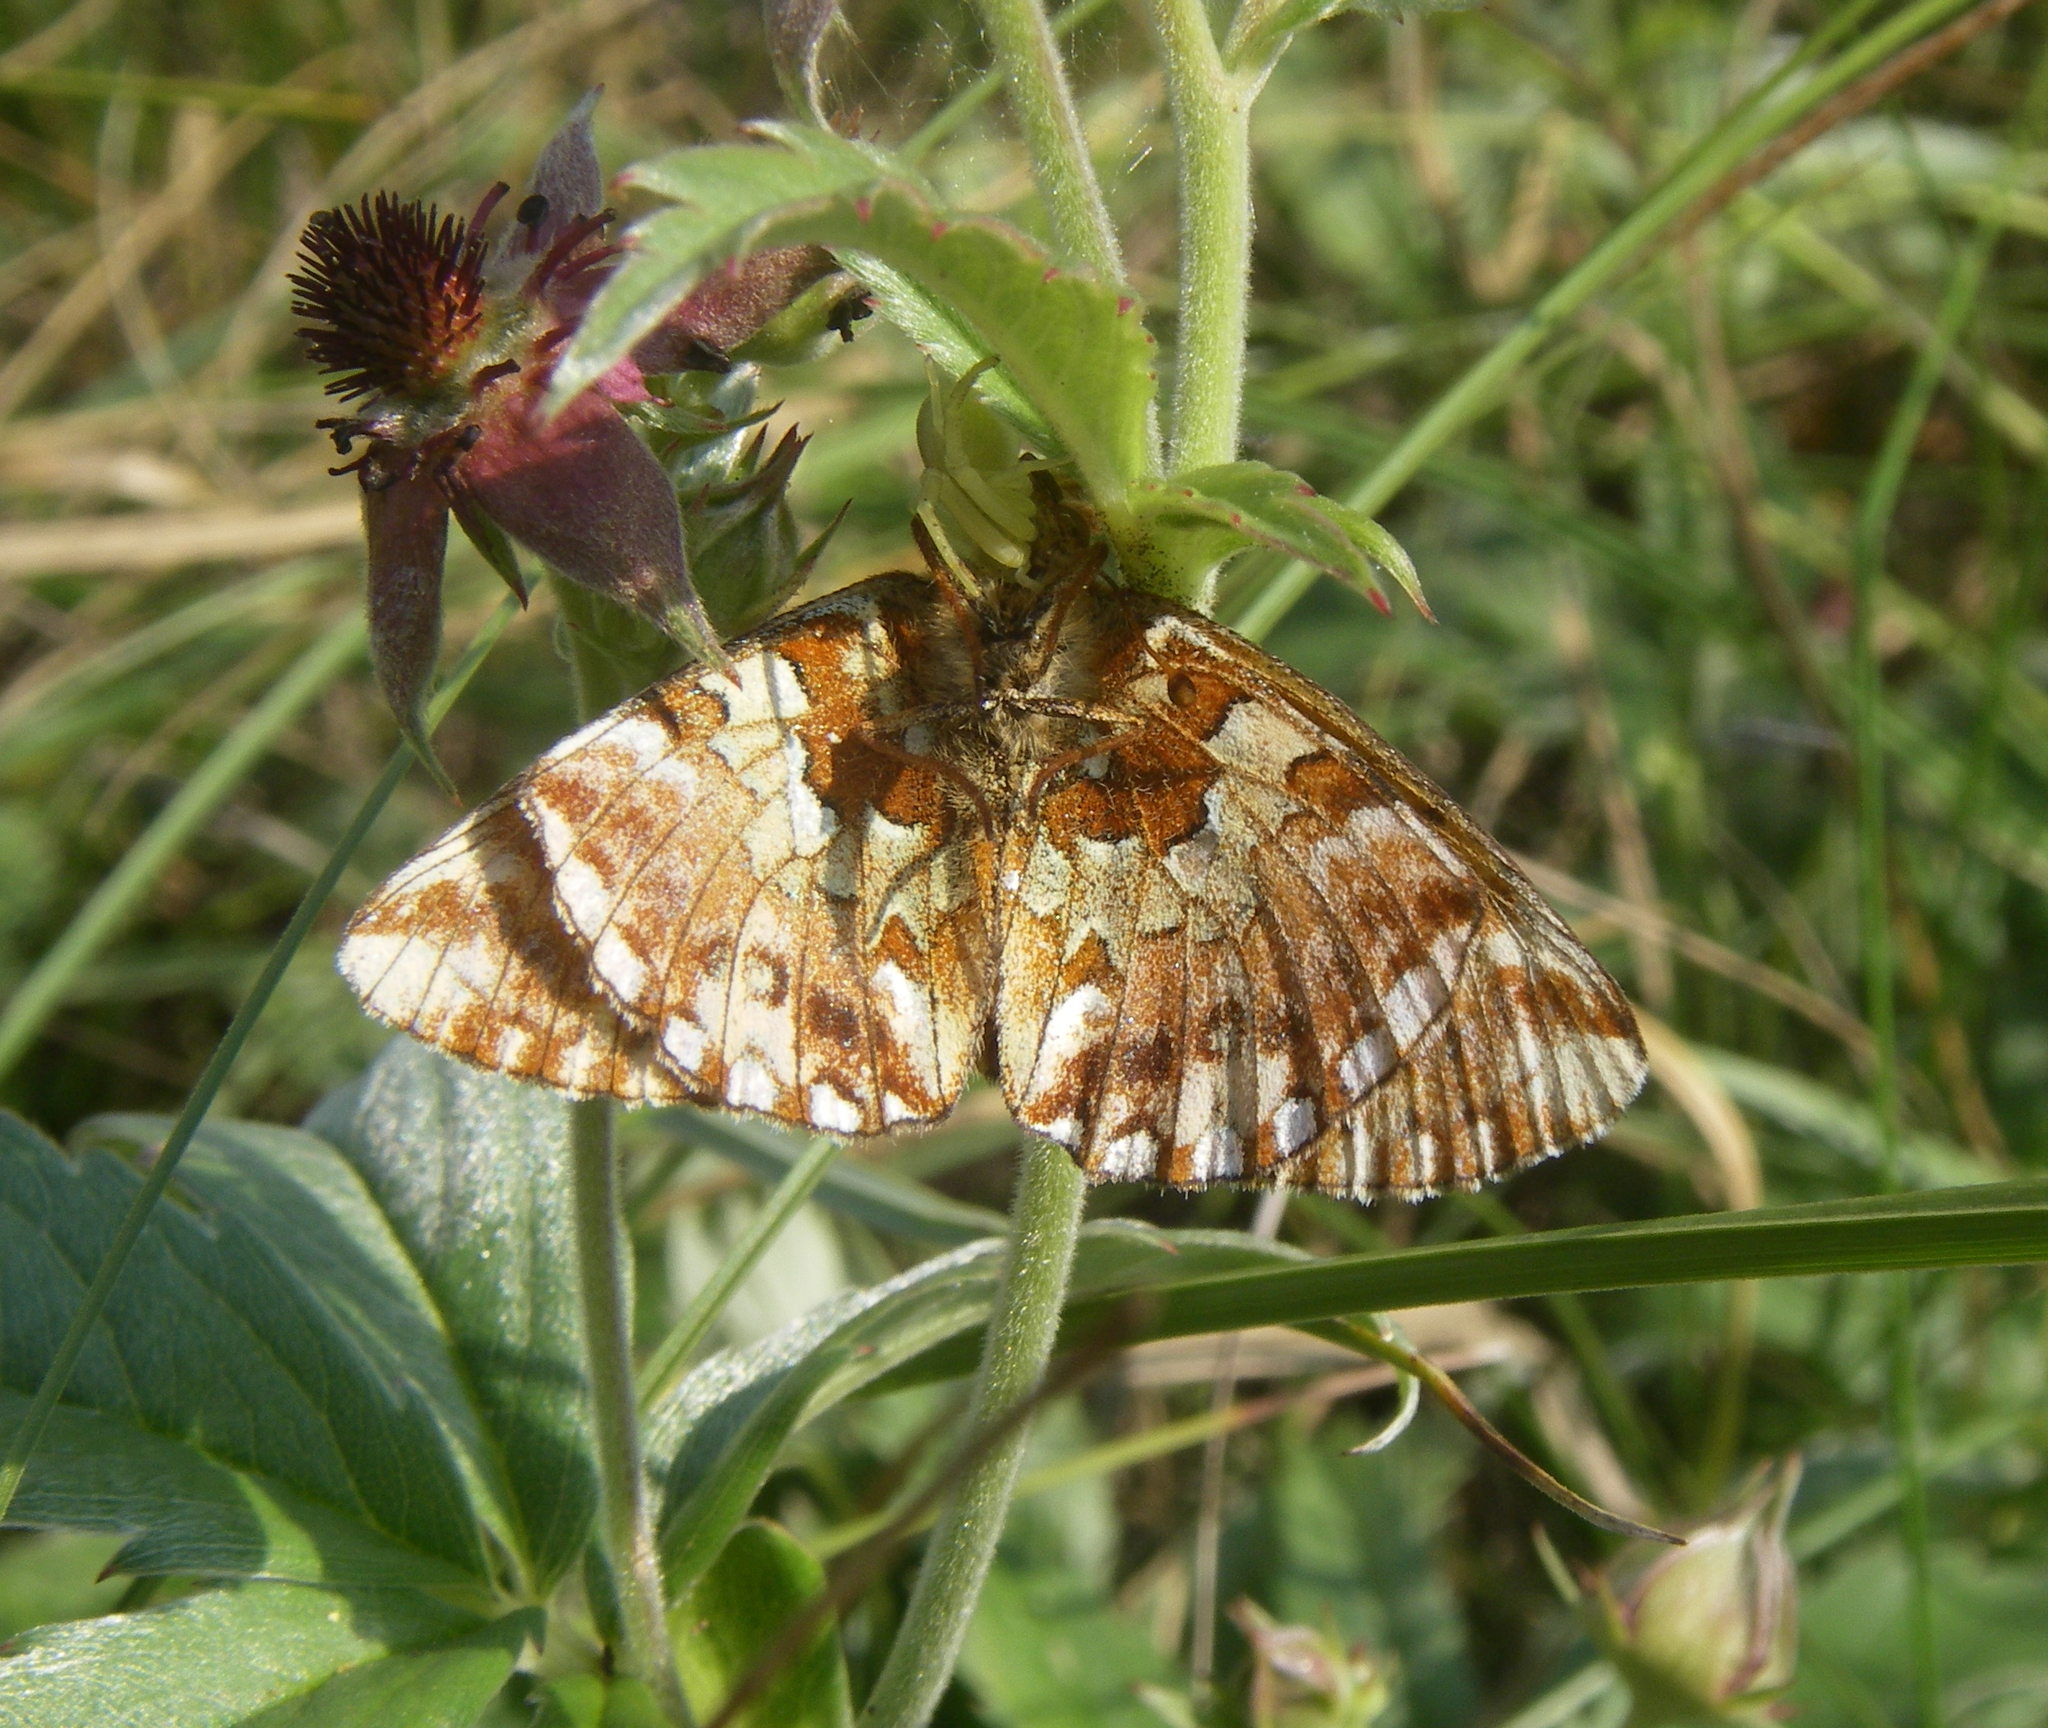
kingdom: Animalia
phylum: Arthropoda
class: Insecta
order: Lepidoptera
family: Nymphalidae
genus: Boloria
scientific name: Boloria aquilonaris
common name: Cranberry fritillary
